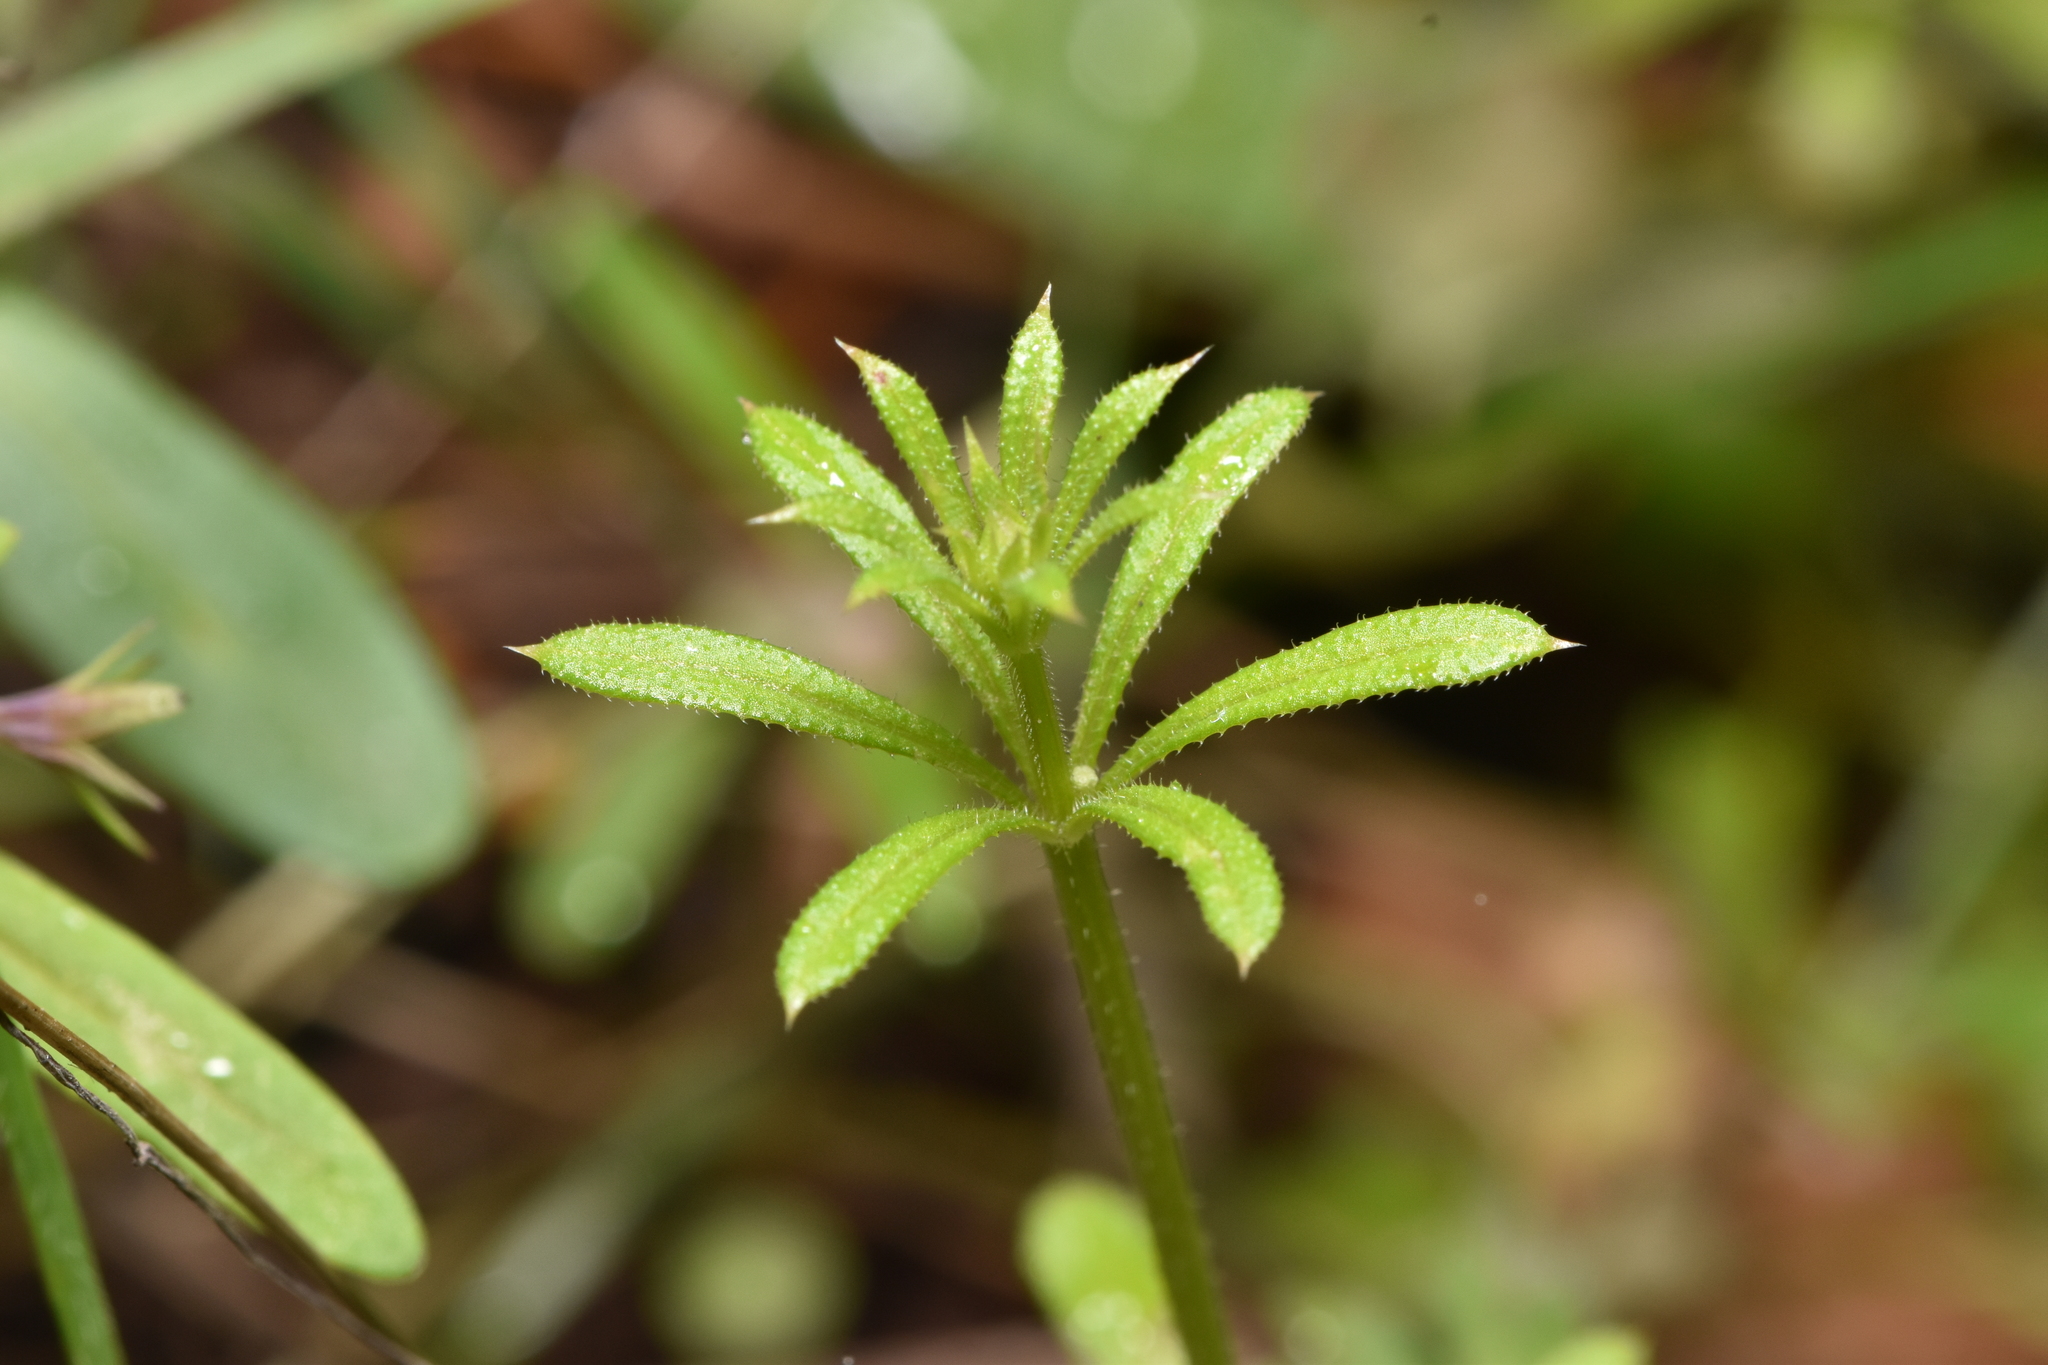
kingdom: Plantae
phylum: Tracheophyta
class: Magnoliopsida
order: Gentianales
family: Rubiaceae
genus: Galium
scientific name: Galium aparine
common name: Cleavers
